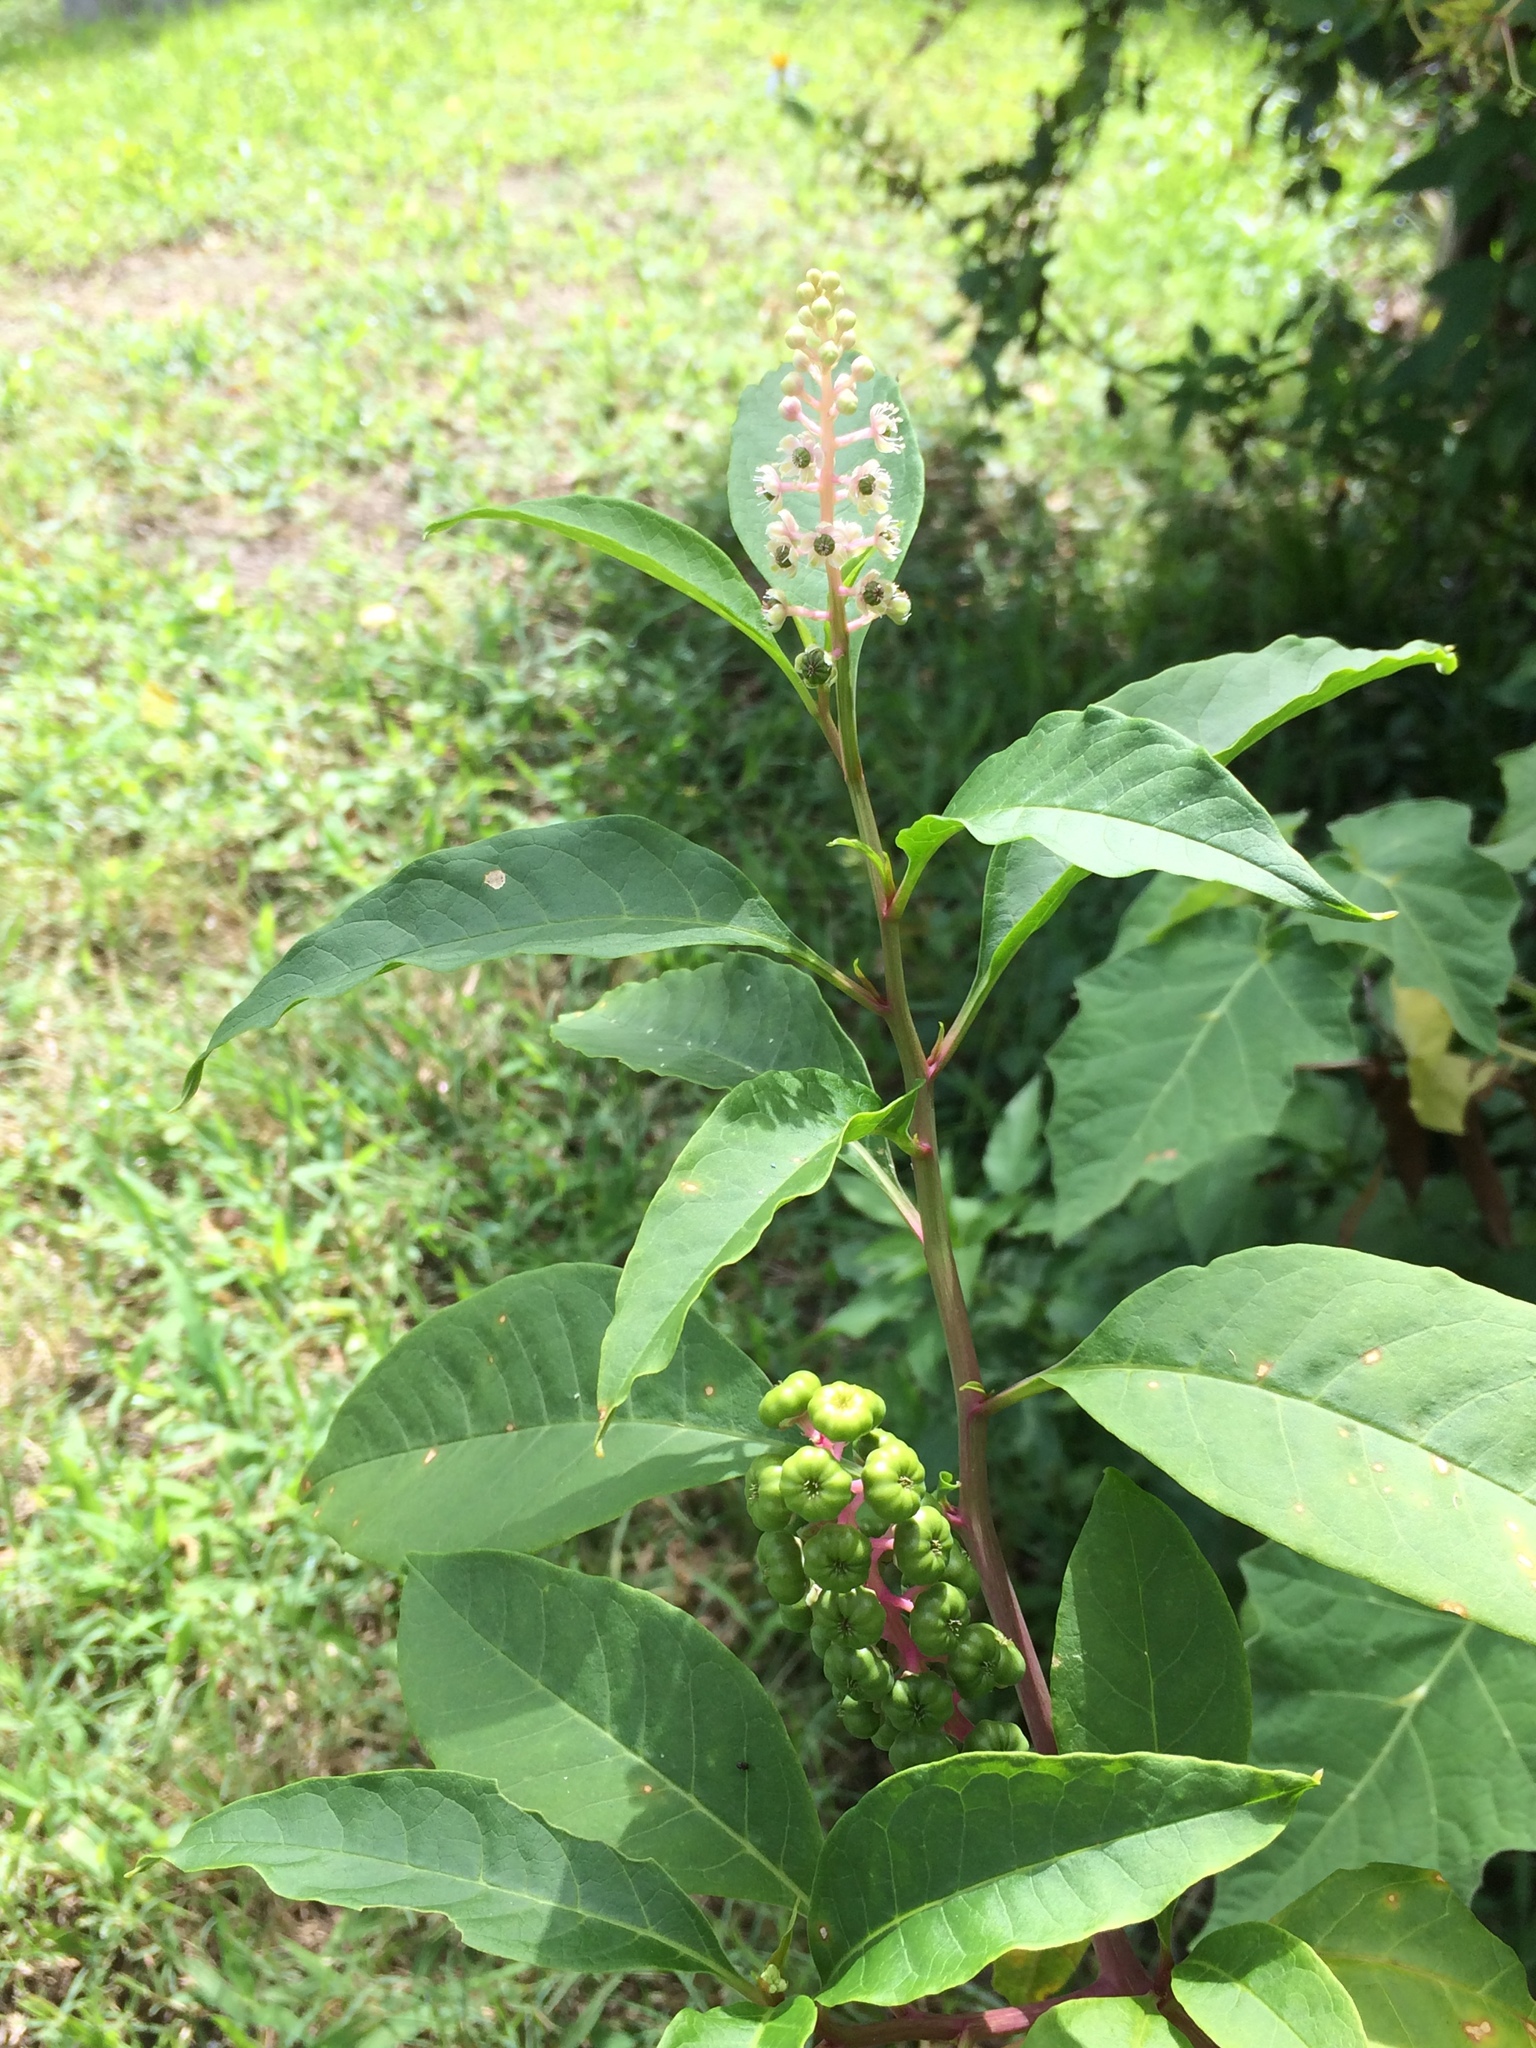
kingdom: Plantae
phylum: Tracheophyta
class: Magnoliopsida
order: Caryophyllales
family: Phytolaccaceae
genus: Phytolacca
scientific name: Phytolacca americana
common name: American pokeweed
